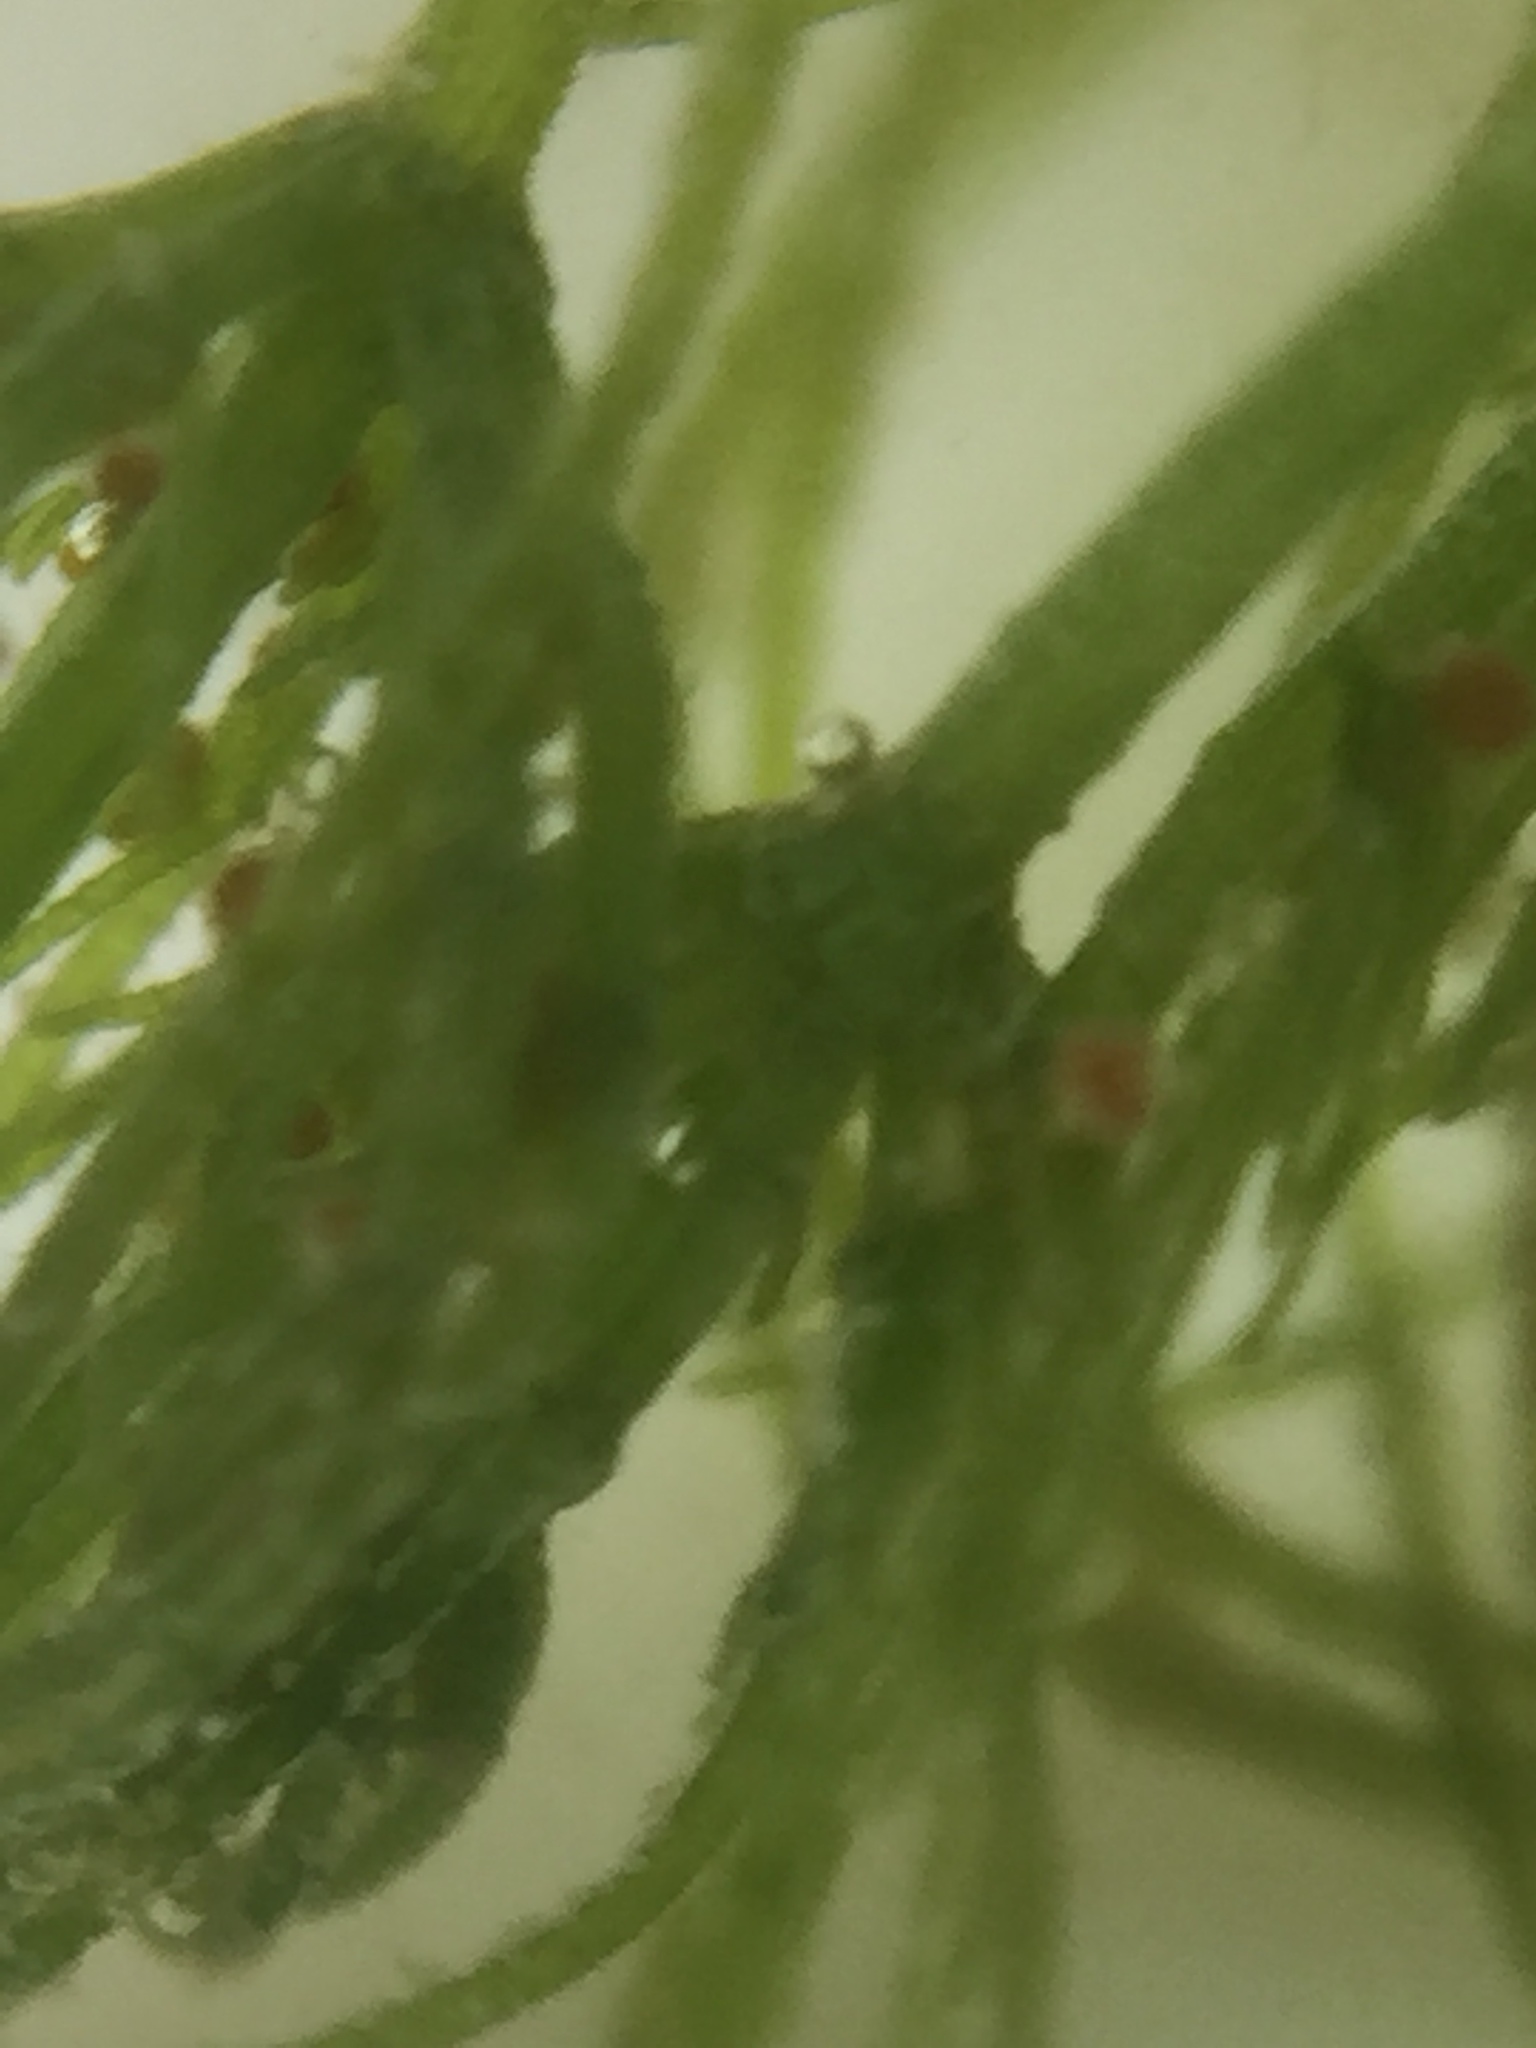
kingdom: Plantae
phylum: Charophyta
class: Charophyceae
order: Charales
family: Characeae
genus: Chara
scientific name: Chara vulgaris
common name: Common stonewort
